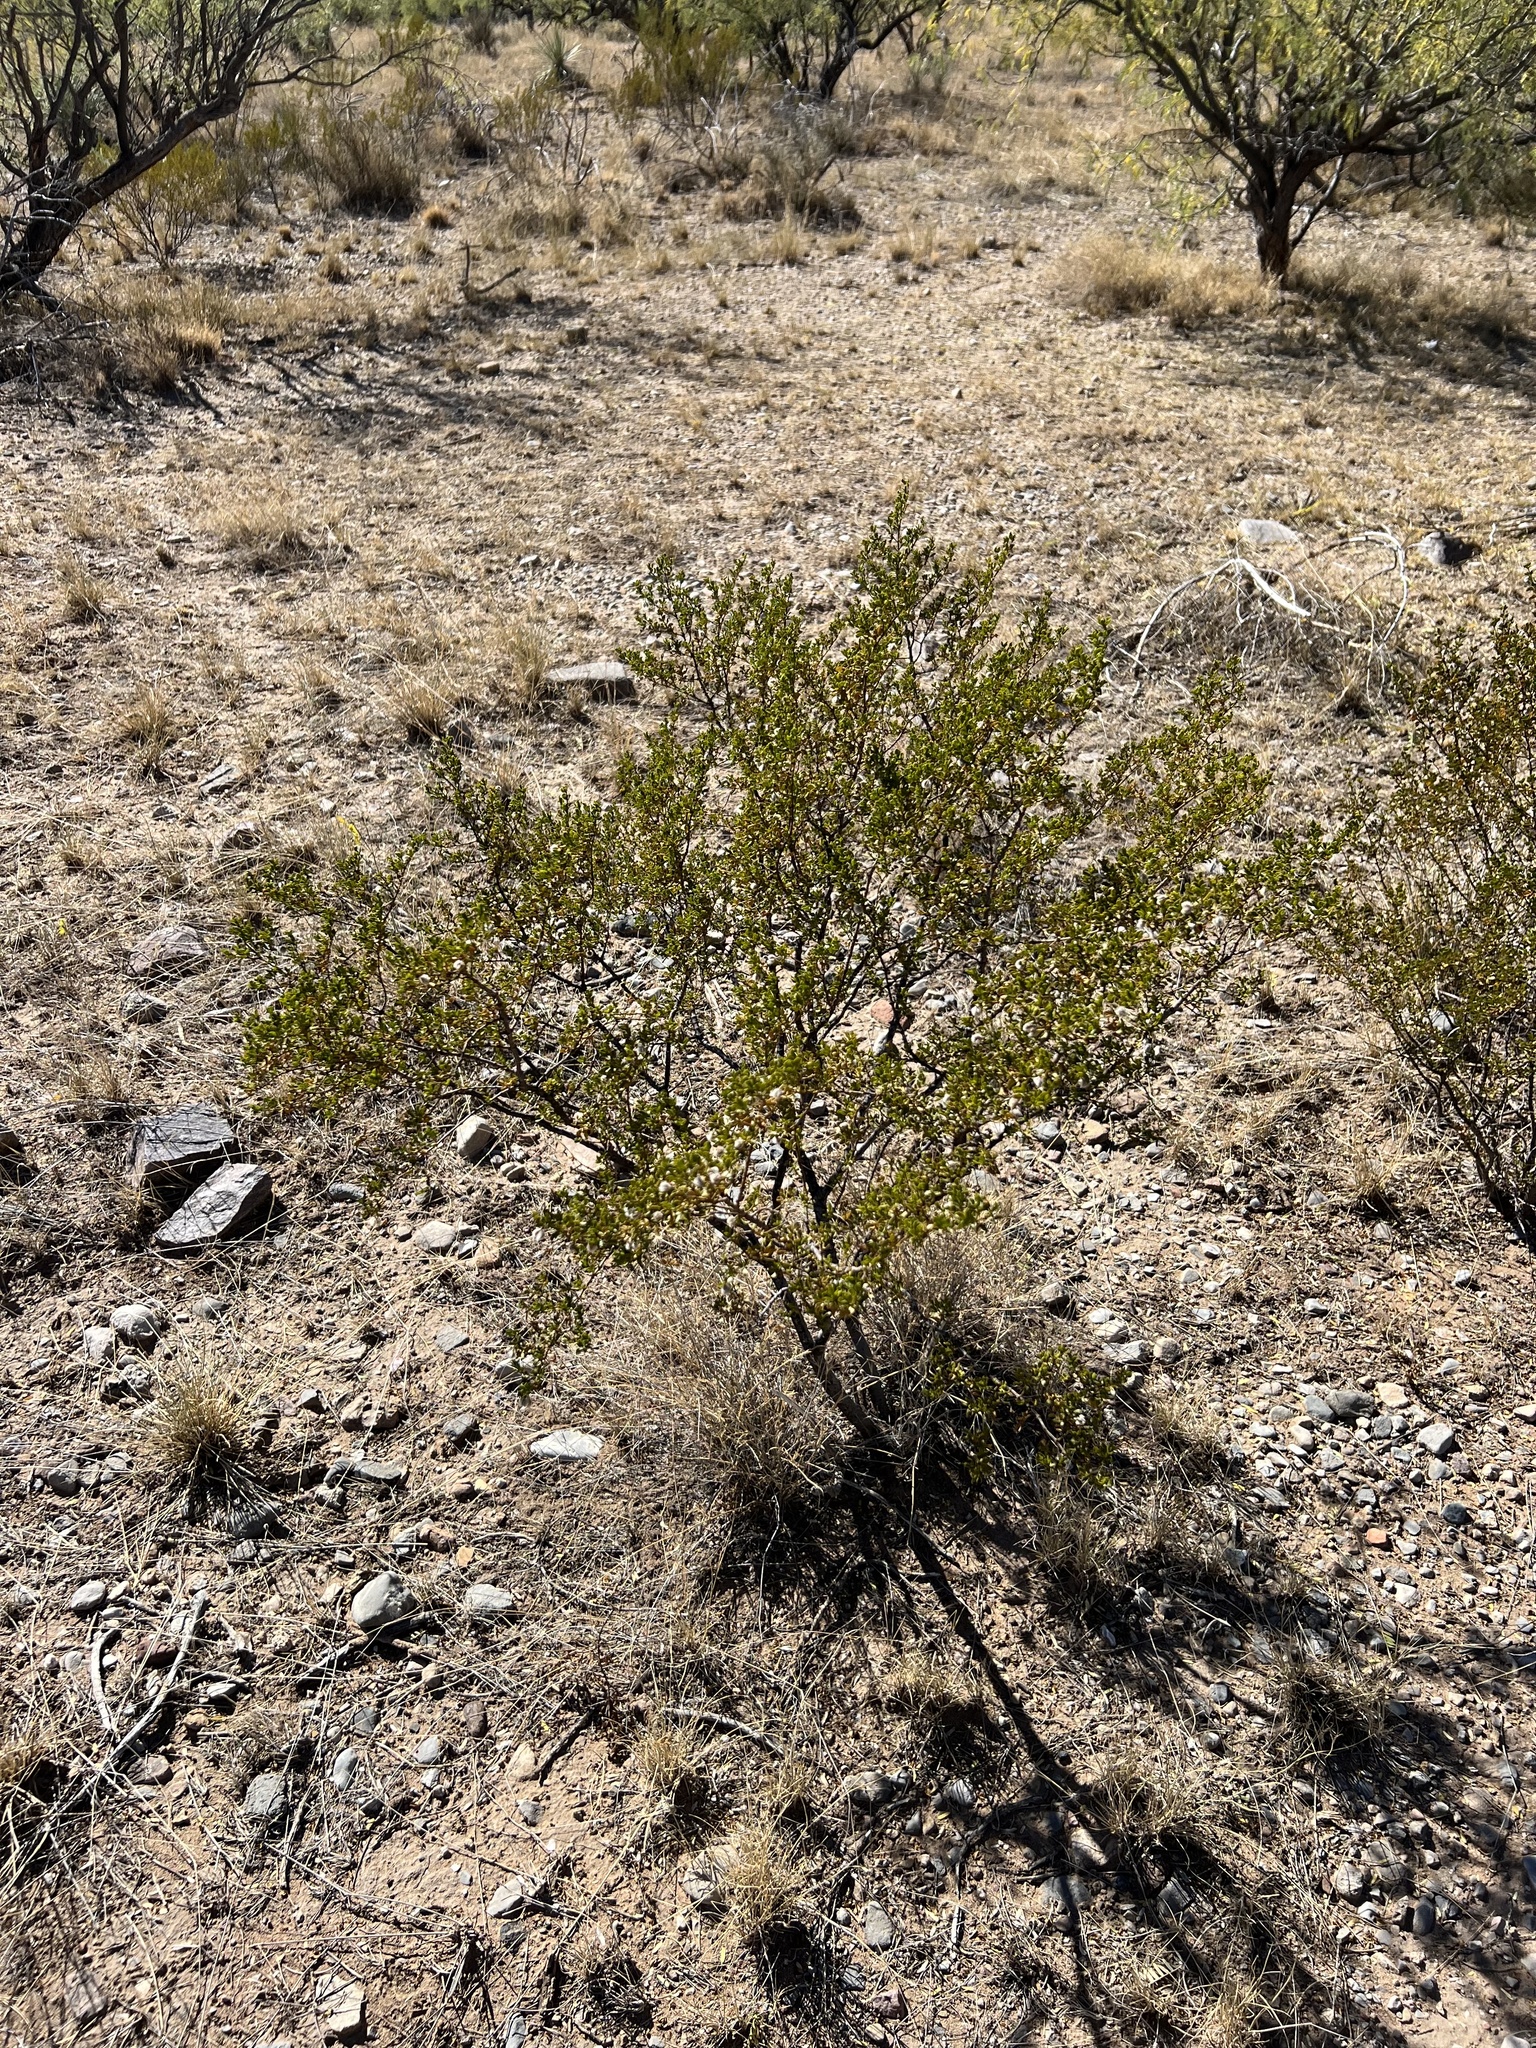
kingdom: Plantae
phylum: Tracheophyta
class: Magnoliopsida
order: Zygophyllales
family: Zygophyllaceae
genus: Larrea
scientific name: Larrea tridentata
